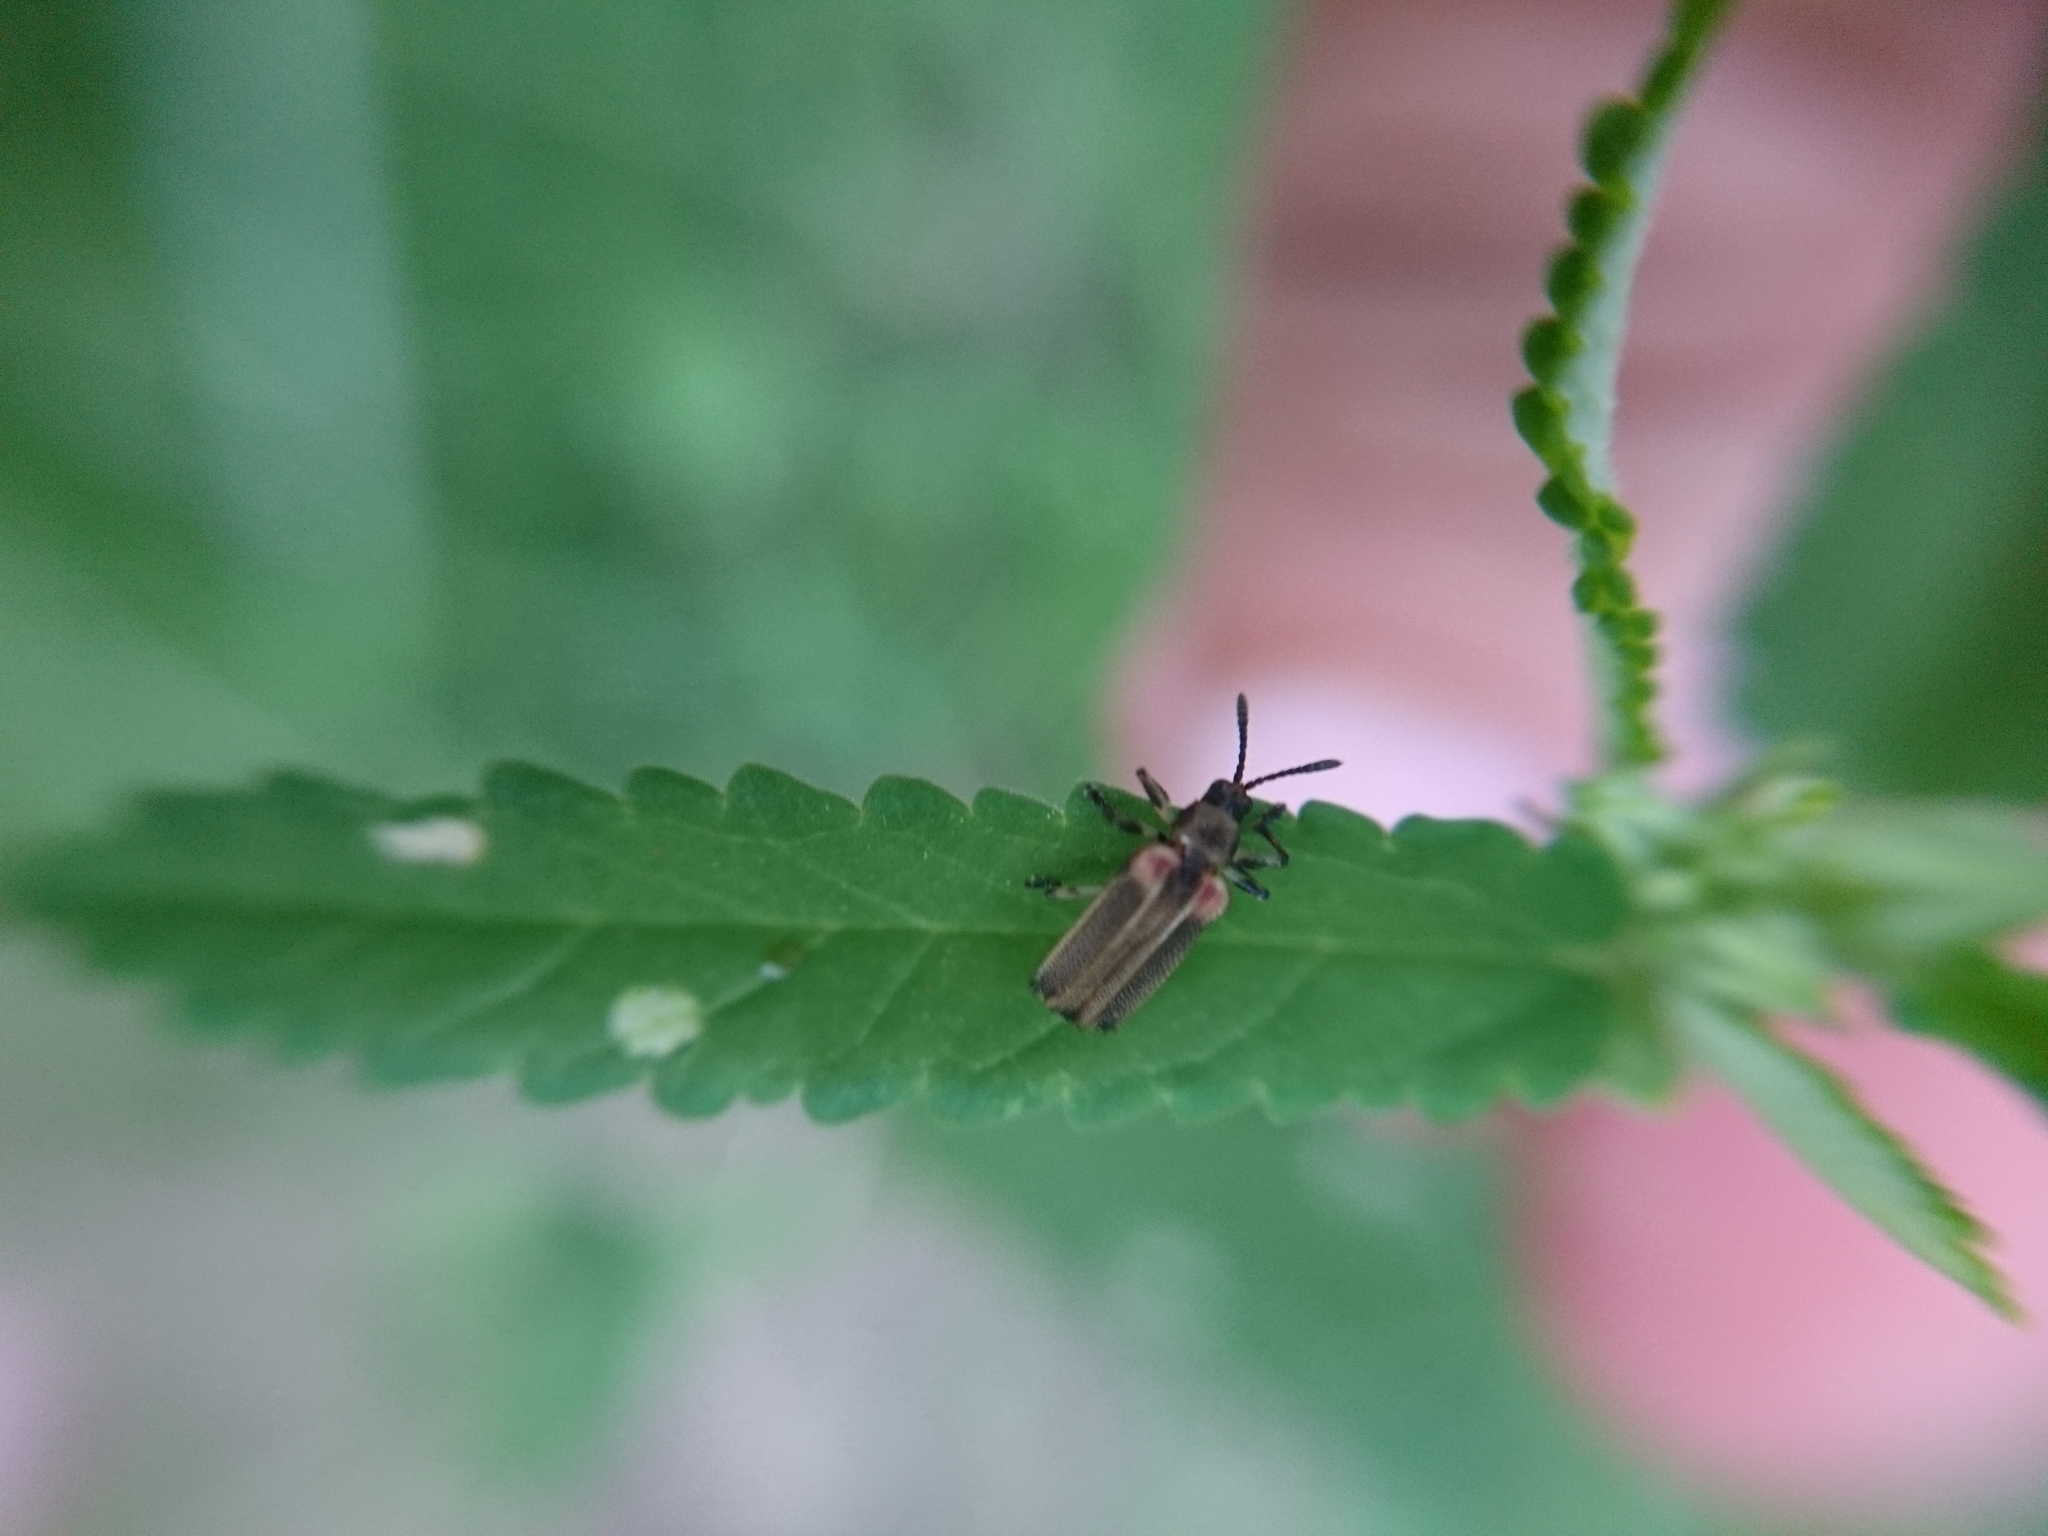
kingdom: Animalia
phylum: Arthropoda
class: Insecta
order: Coleoptera
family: Chrysomelidae
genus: Heterispa
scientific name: Heterispa costipennis
